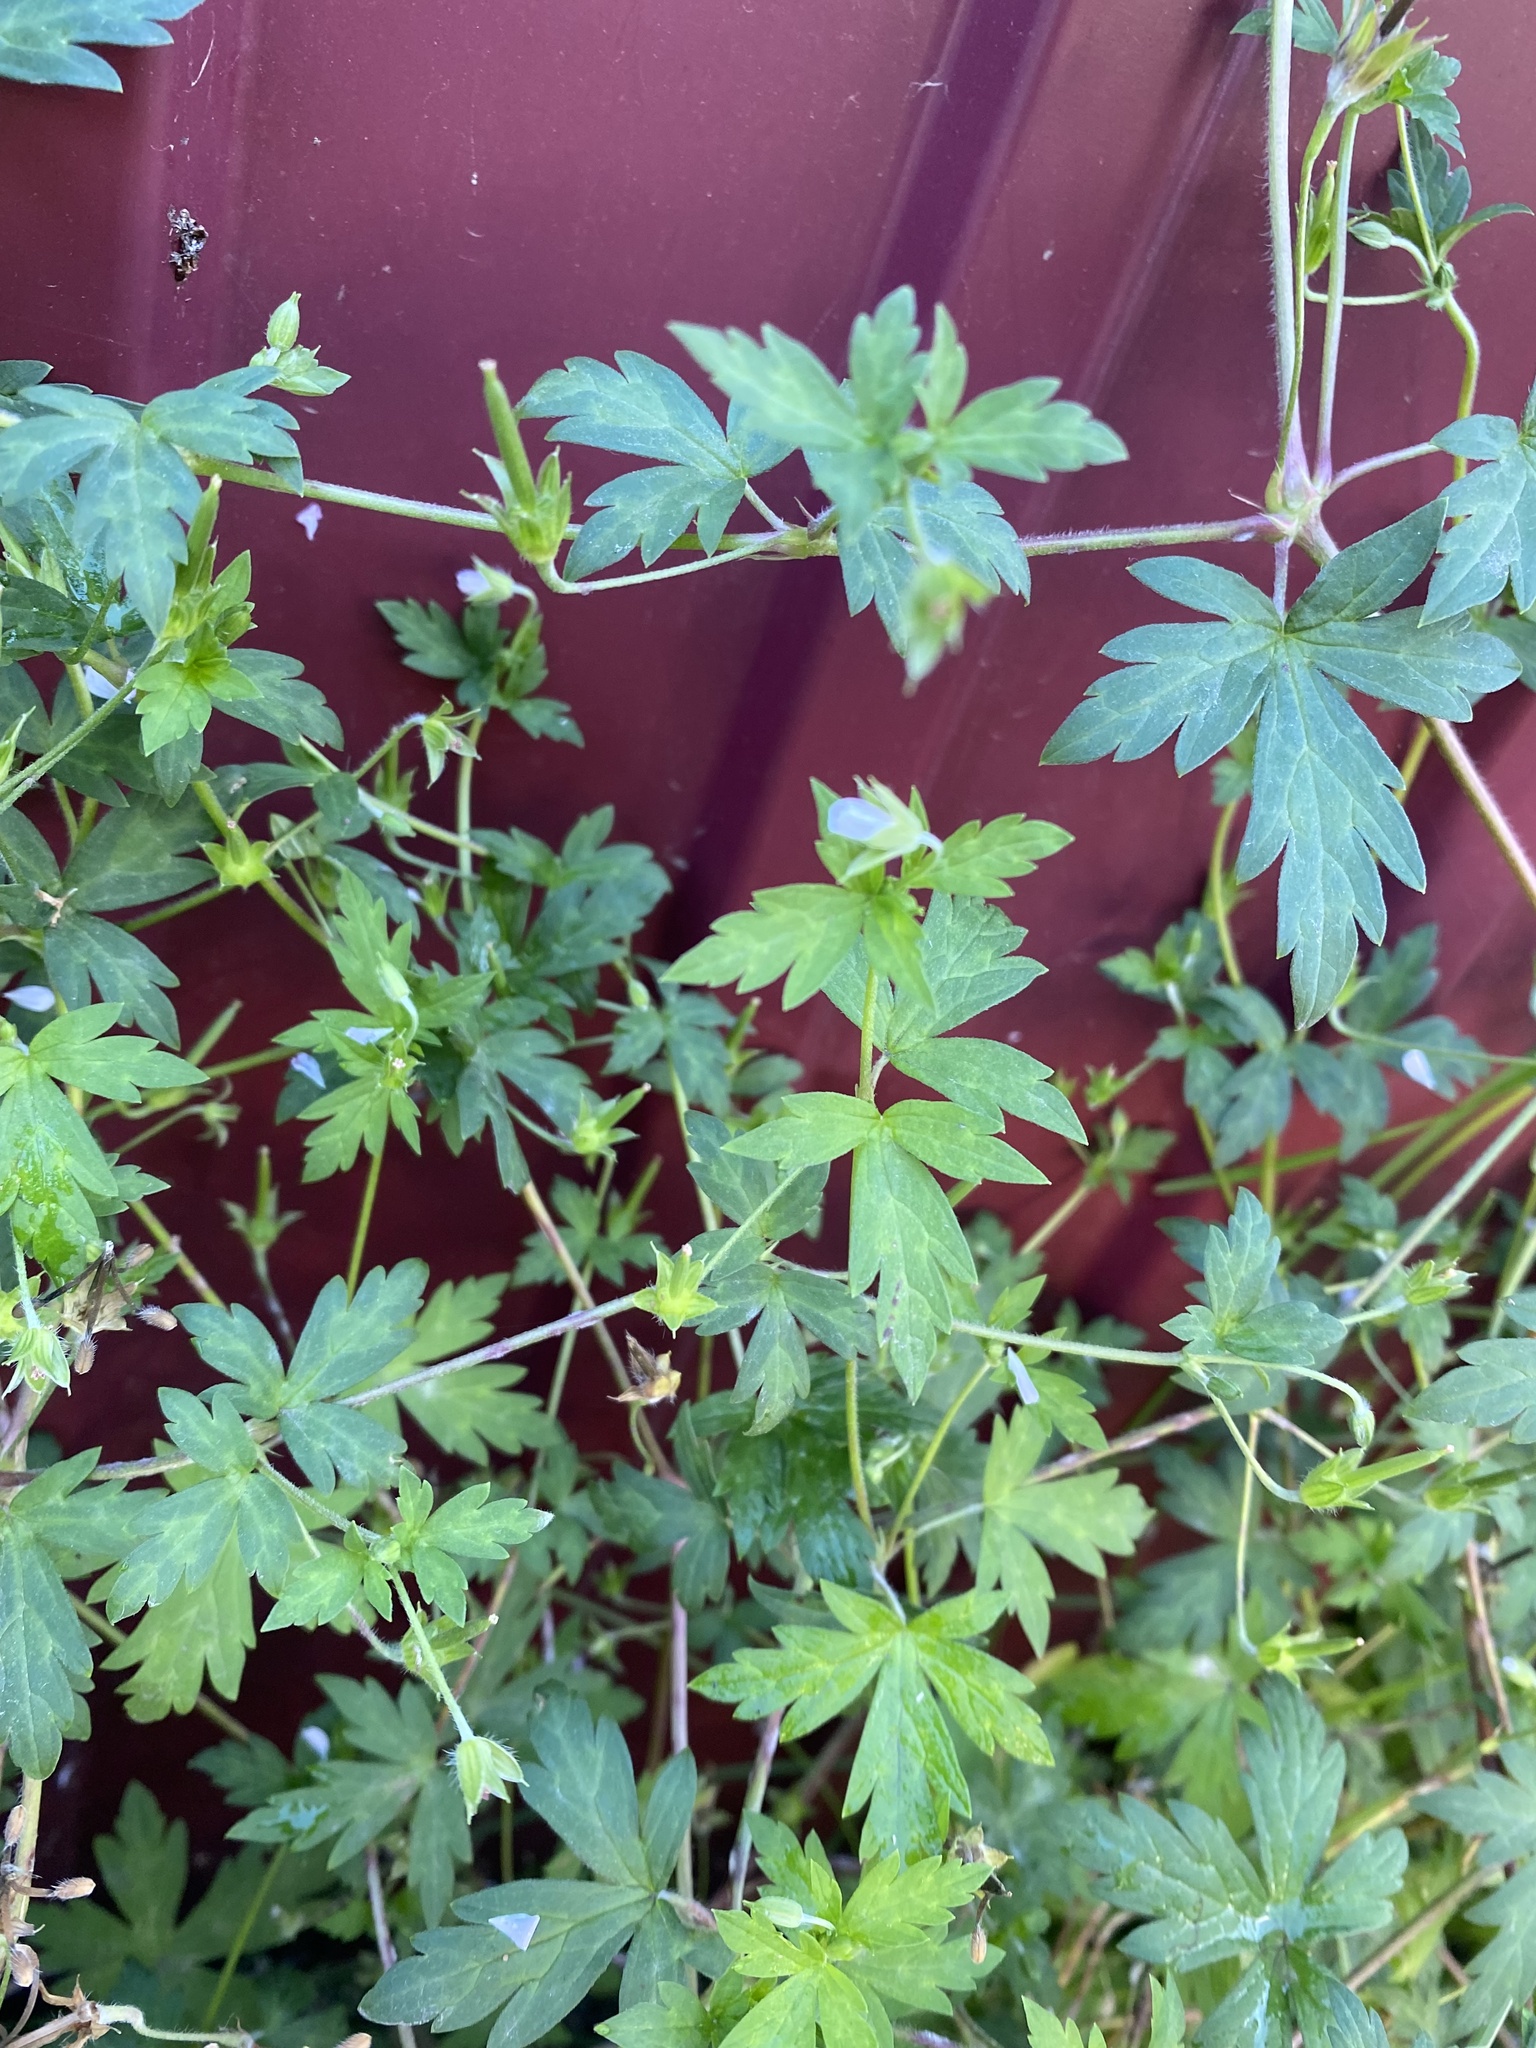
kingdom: Plantae
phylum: Tracheophyta
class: Magnoliopsida
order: Geraniales
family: Geraniaceae
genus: Geranium
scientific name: Geranium sibiricum
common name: Siberian crane's-bill
